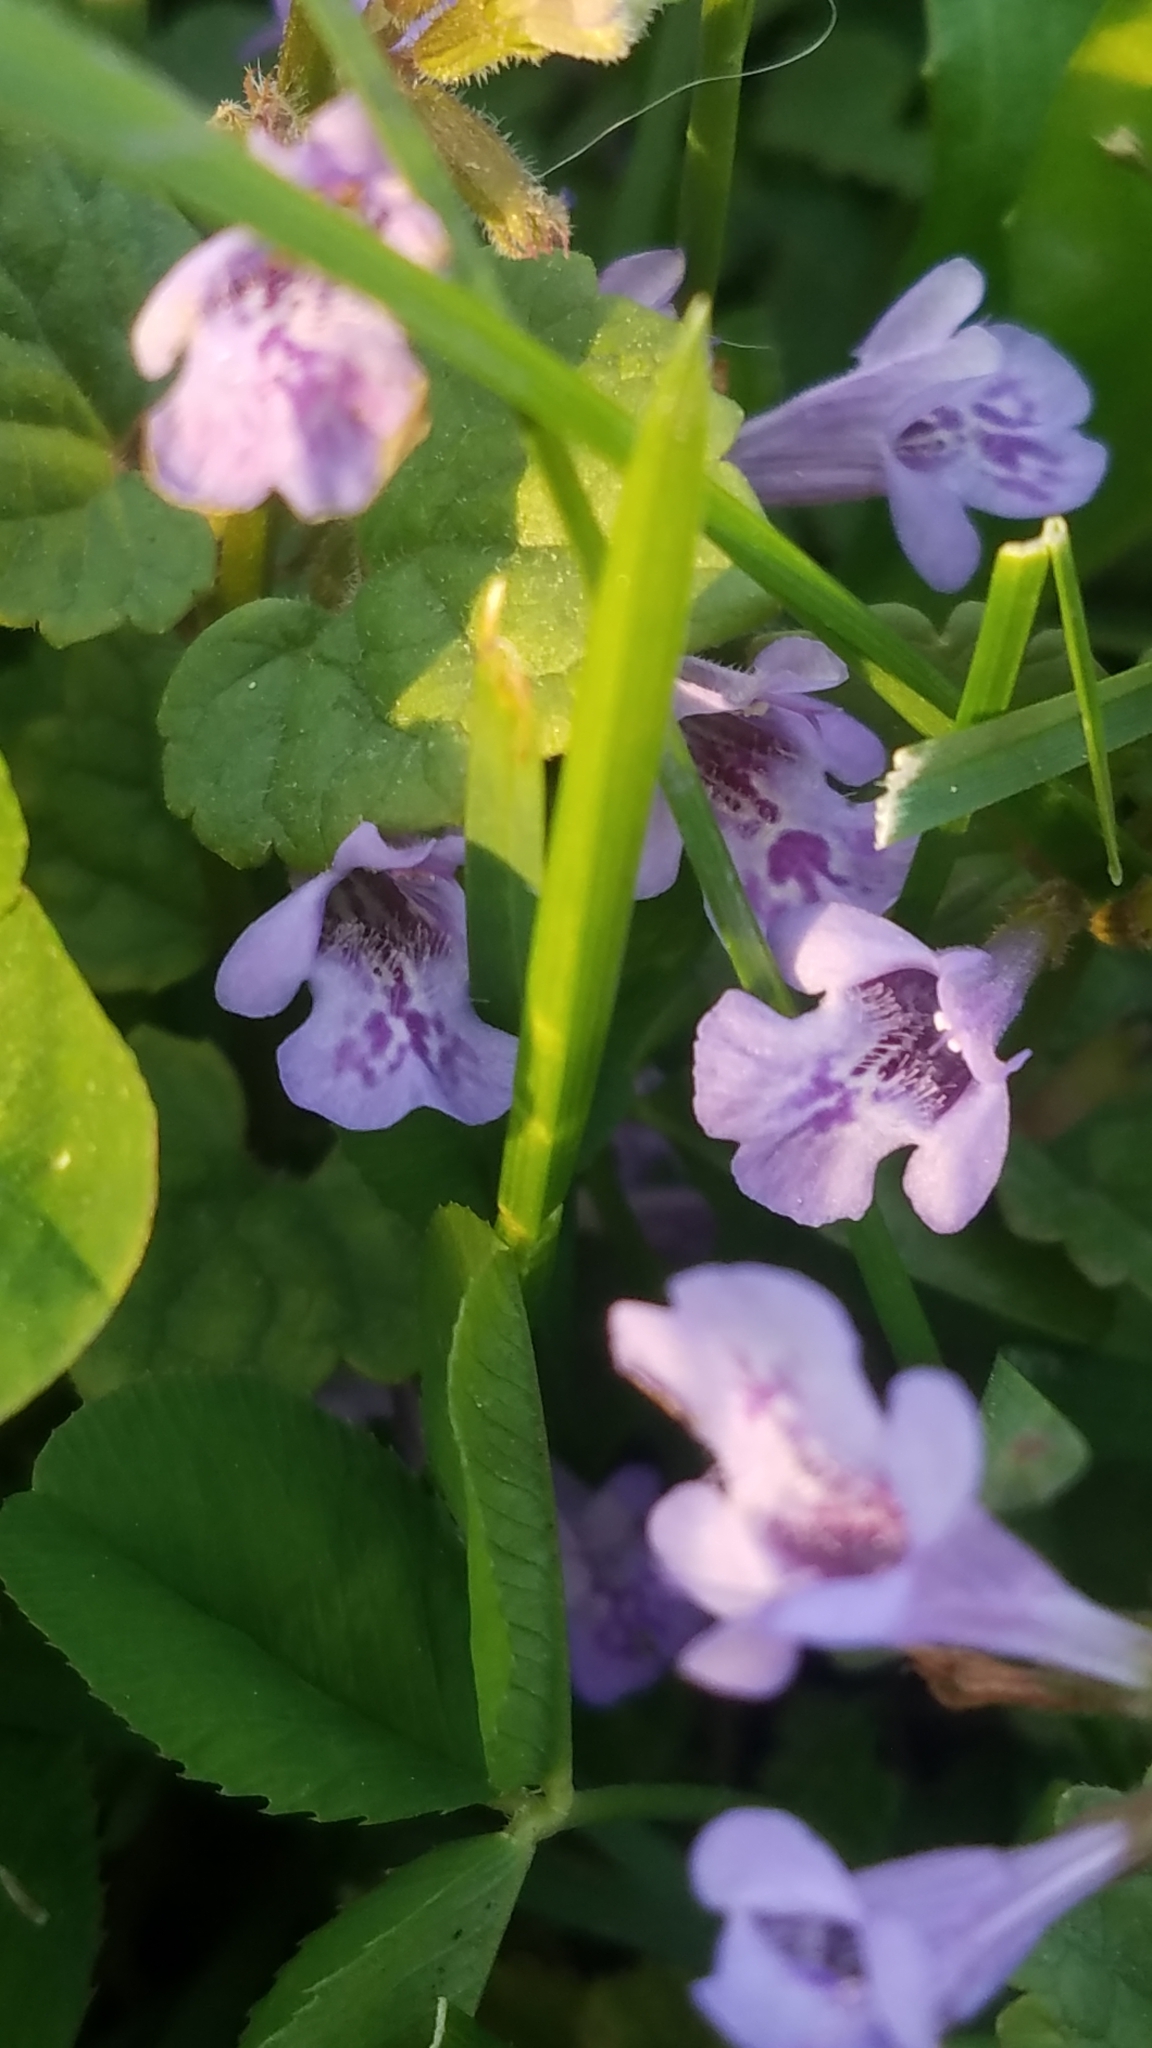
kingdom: Plantae
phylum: Tracheophyta
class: Magnoliopsida
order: Lamiales
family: Lamiaceae
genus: Glechoma
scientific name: Glechoma hederacea
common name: Ground ivy
